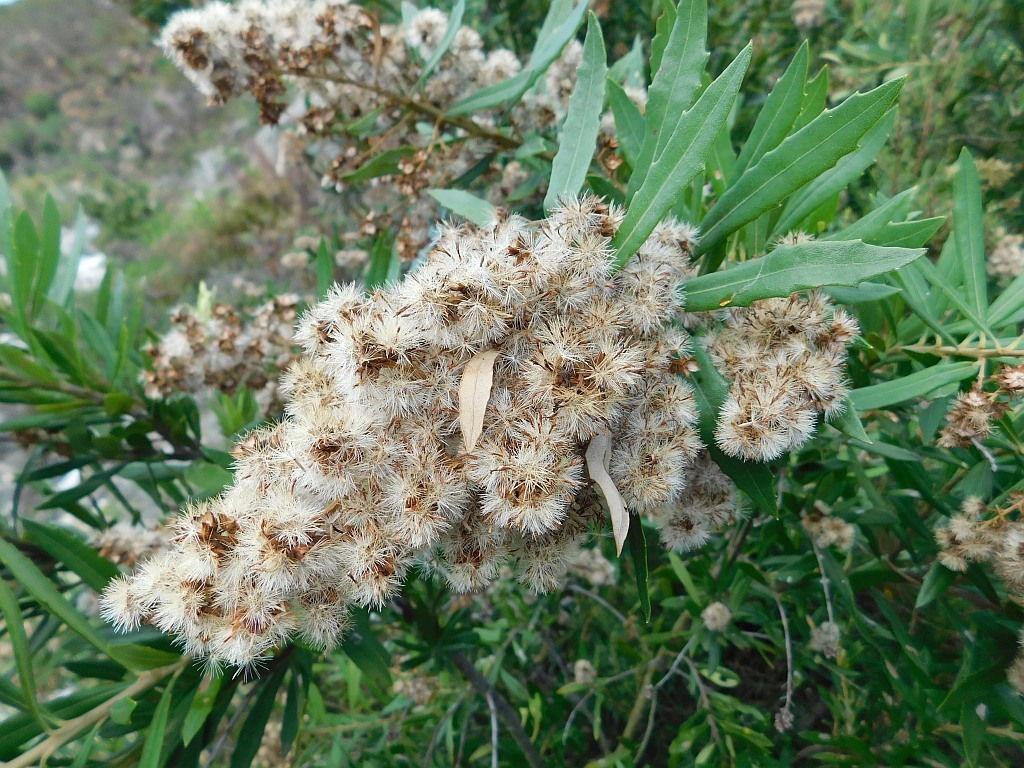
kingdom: Plantae
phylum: Tracheophyta
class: Magnoliopsida
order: Asterales
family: Asteraceae
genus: Brachylaena
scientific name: Brachylaena neriifolia
